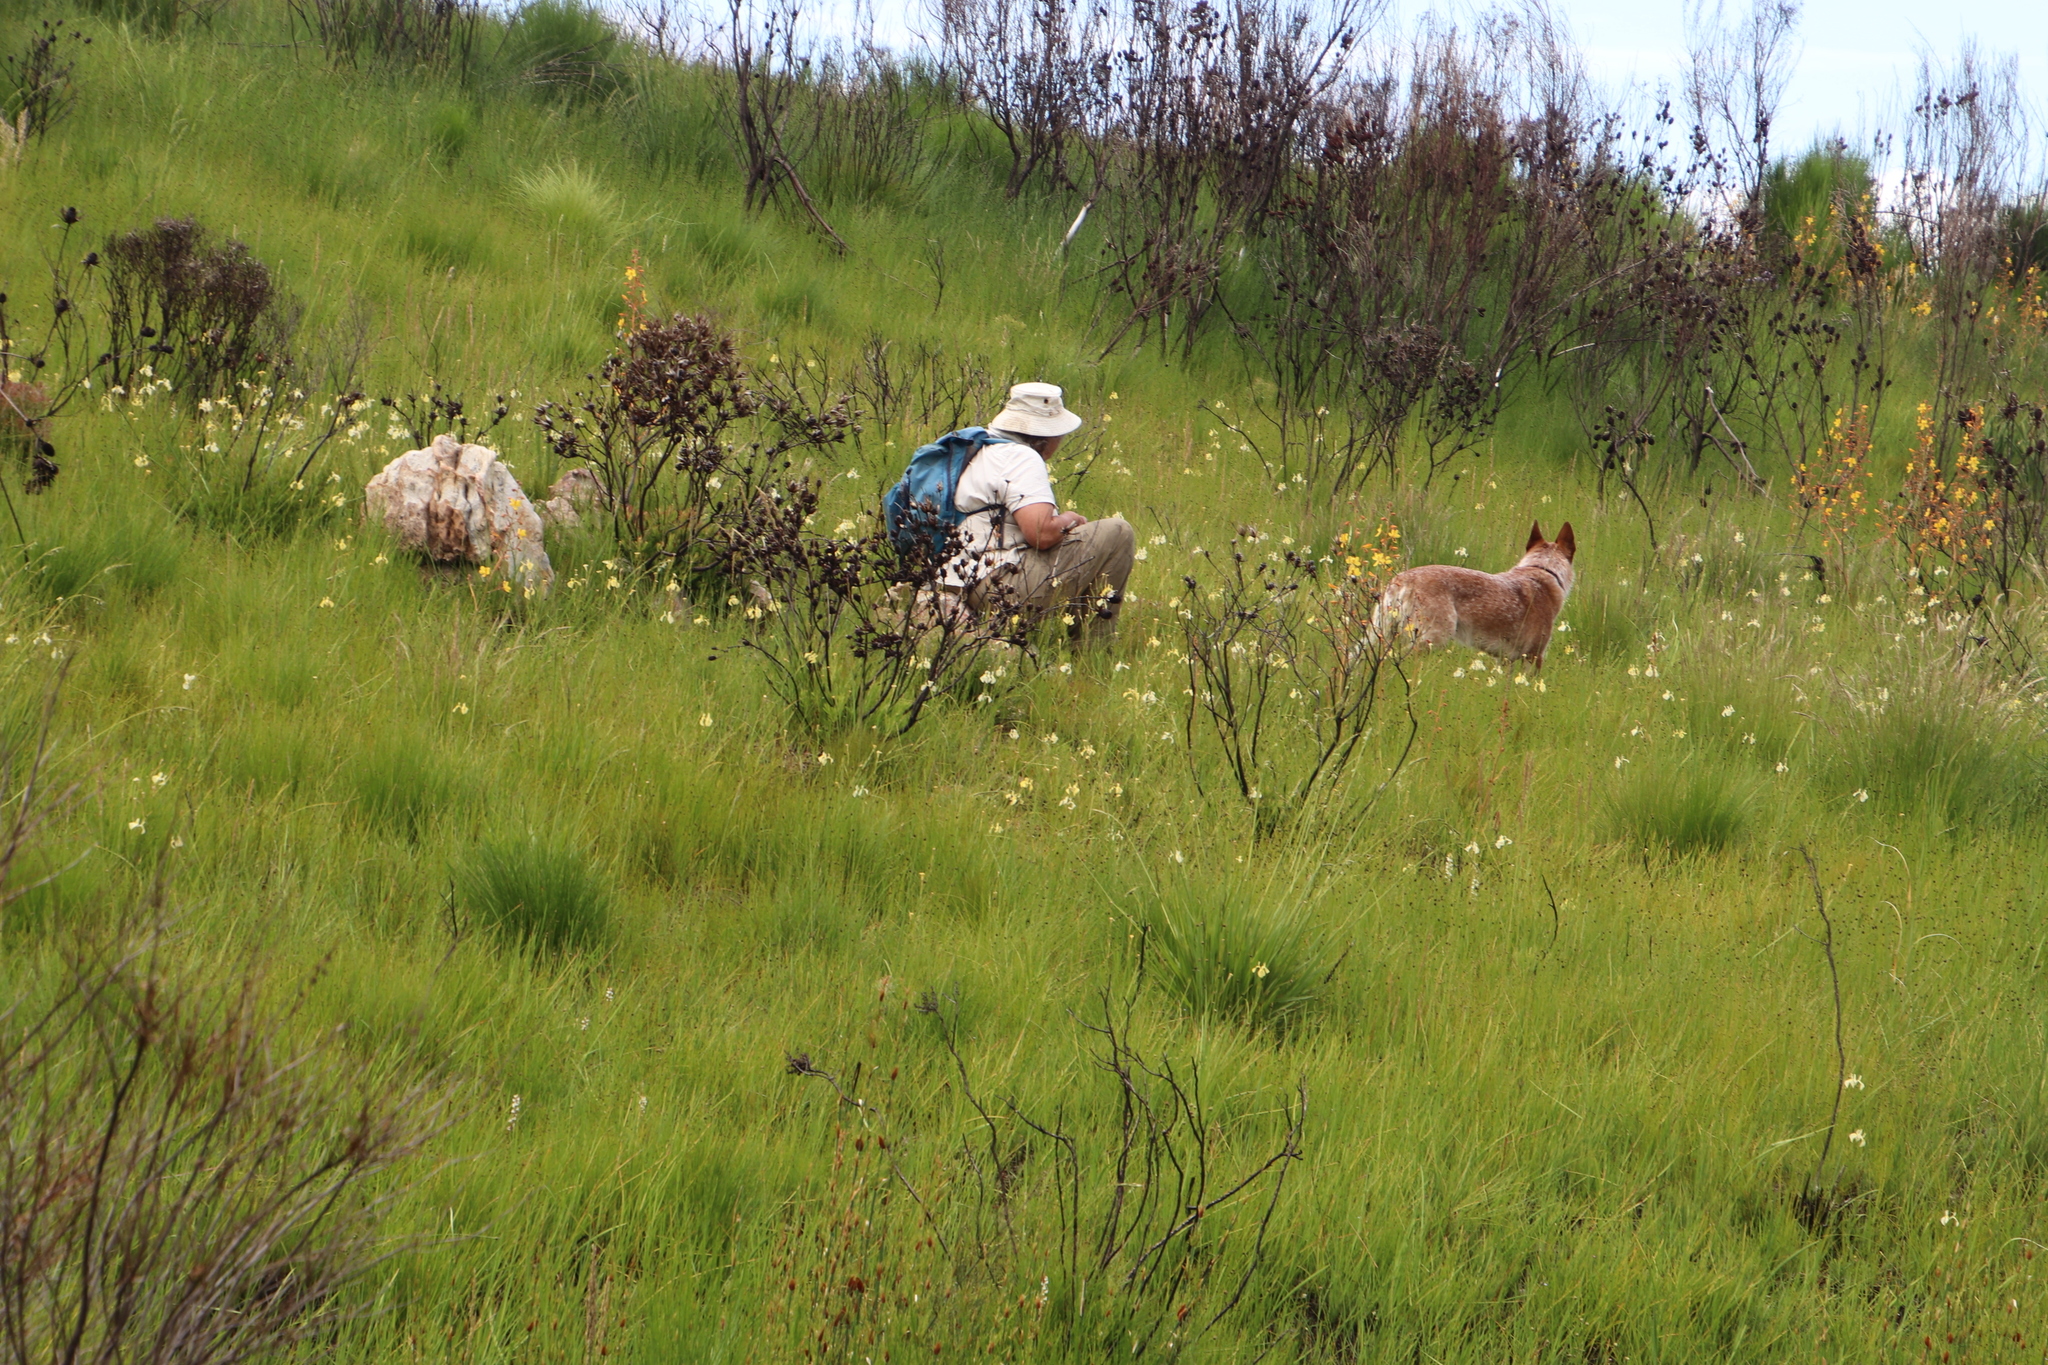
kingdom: Plantae
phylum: Tracheophyta
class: Liliopsida
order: Asparagales
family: Iridaceae
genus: Moraea
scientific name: Moraea cooperi
